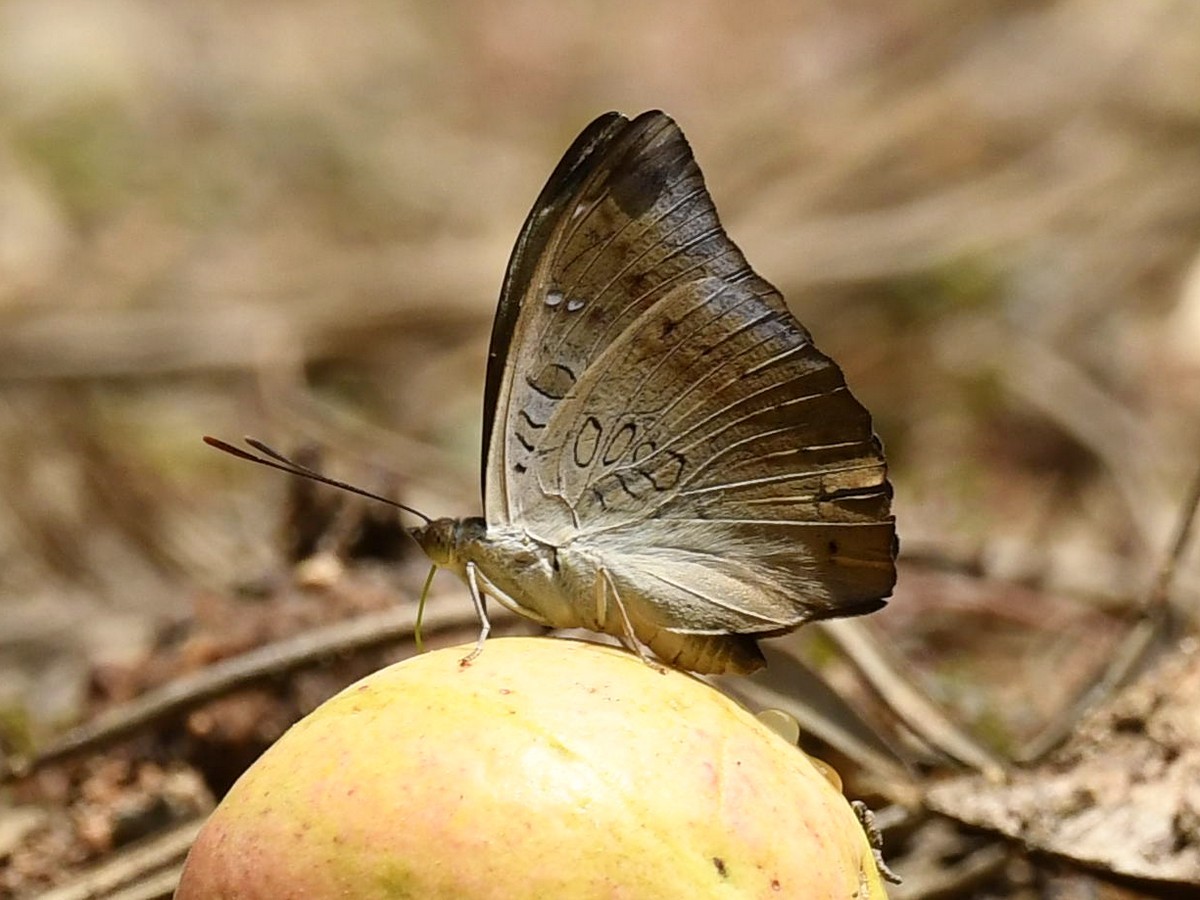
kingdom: Animalia
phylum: Arthropoda
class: Insecta
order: Lepidoptera
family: Nymphalidae
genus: Euthalia
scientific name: Euthalia aconthea
